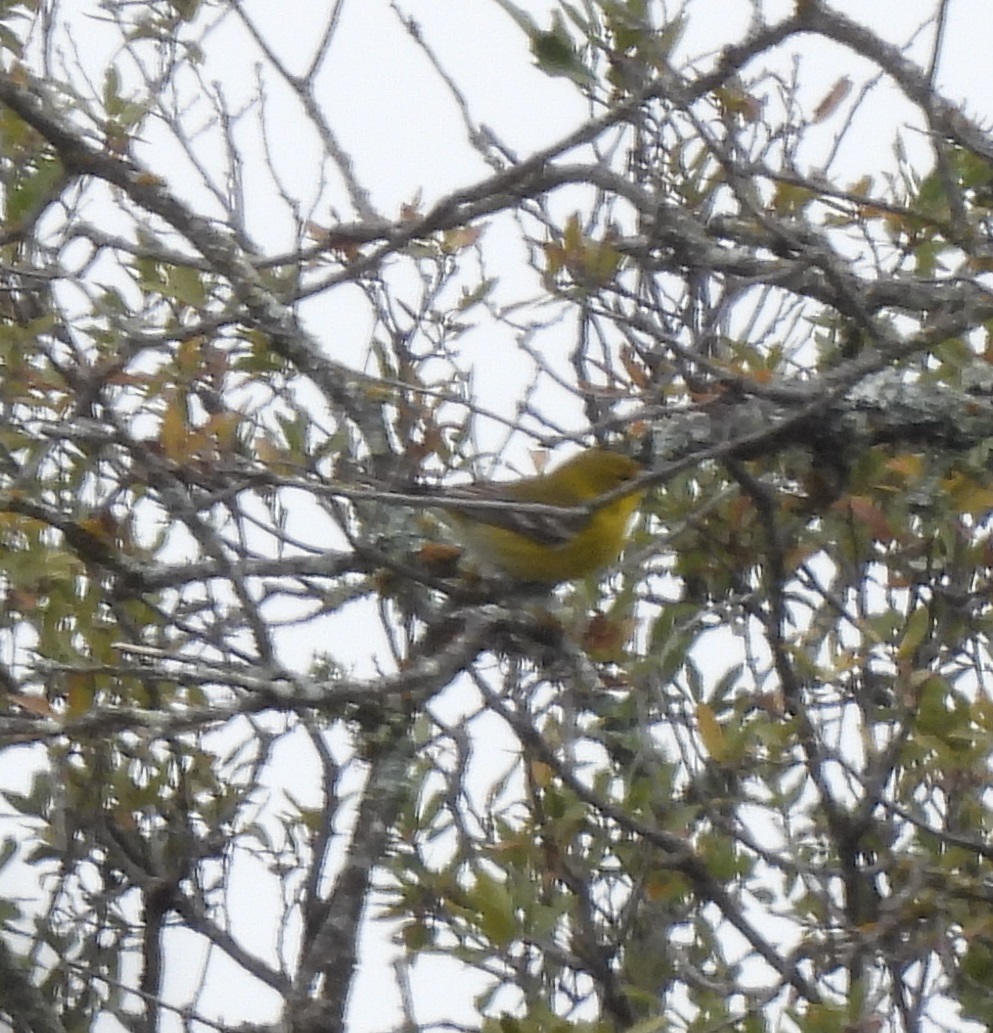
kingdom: Animalia
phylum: Chordata
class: Aves
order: Passeriformes
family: Parulidae
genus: Setophaga
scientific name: Setophaga pinus
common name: Pine warbler
